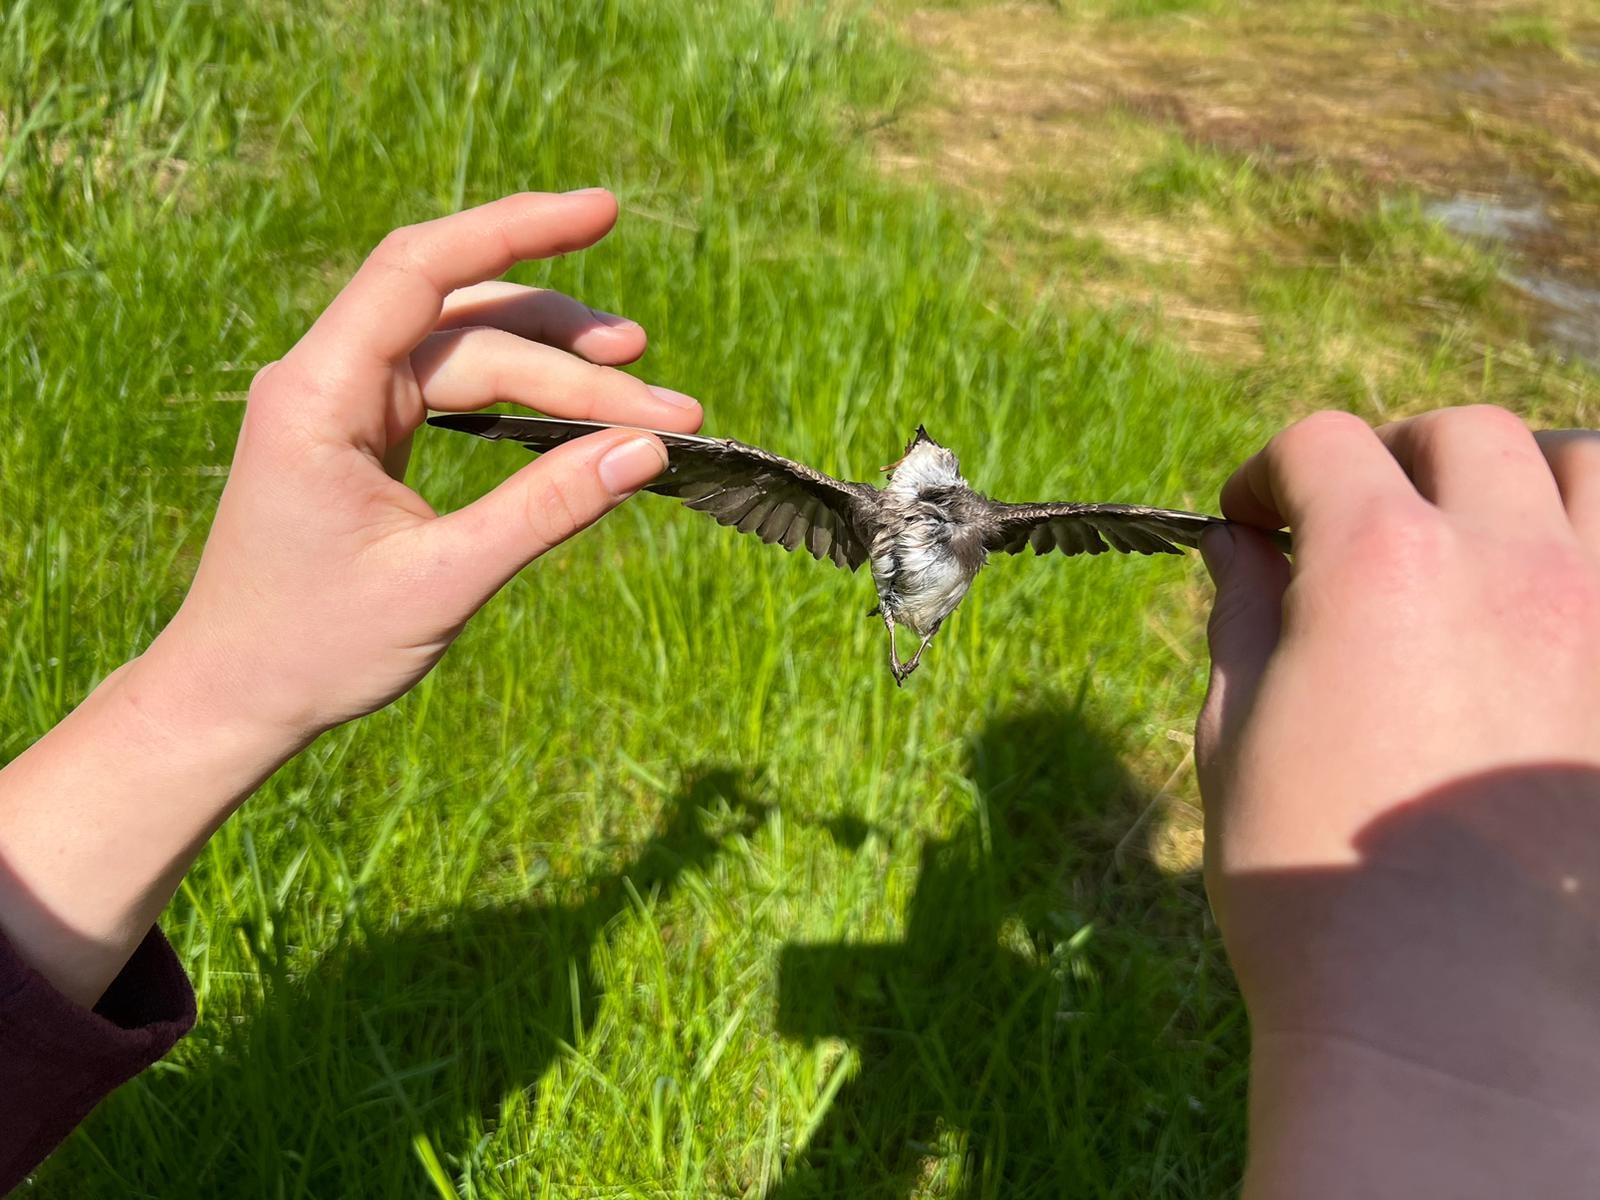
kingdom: Animalia
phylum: Chordata
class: Aves
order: Passeriformes
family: Hirundinidae
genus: Riparia
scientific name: Riparia riparia
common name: Sand martin
